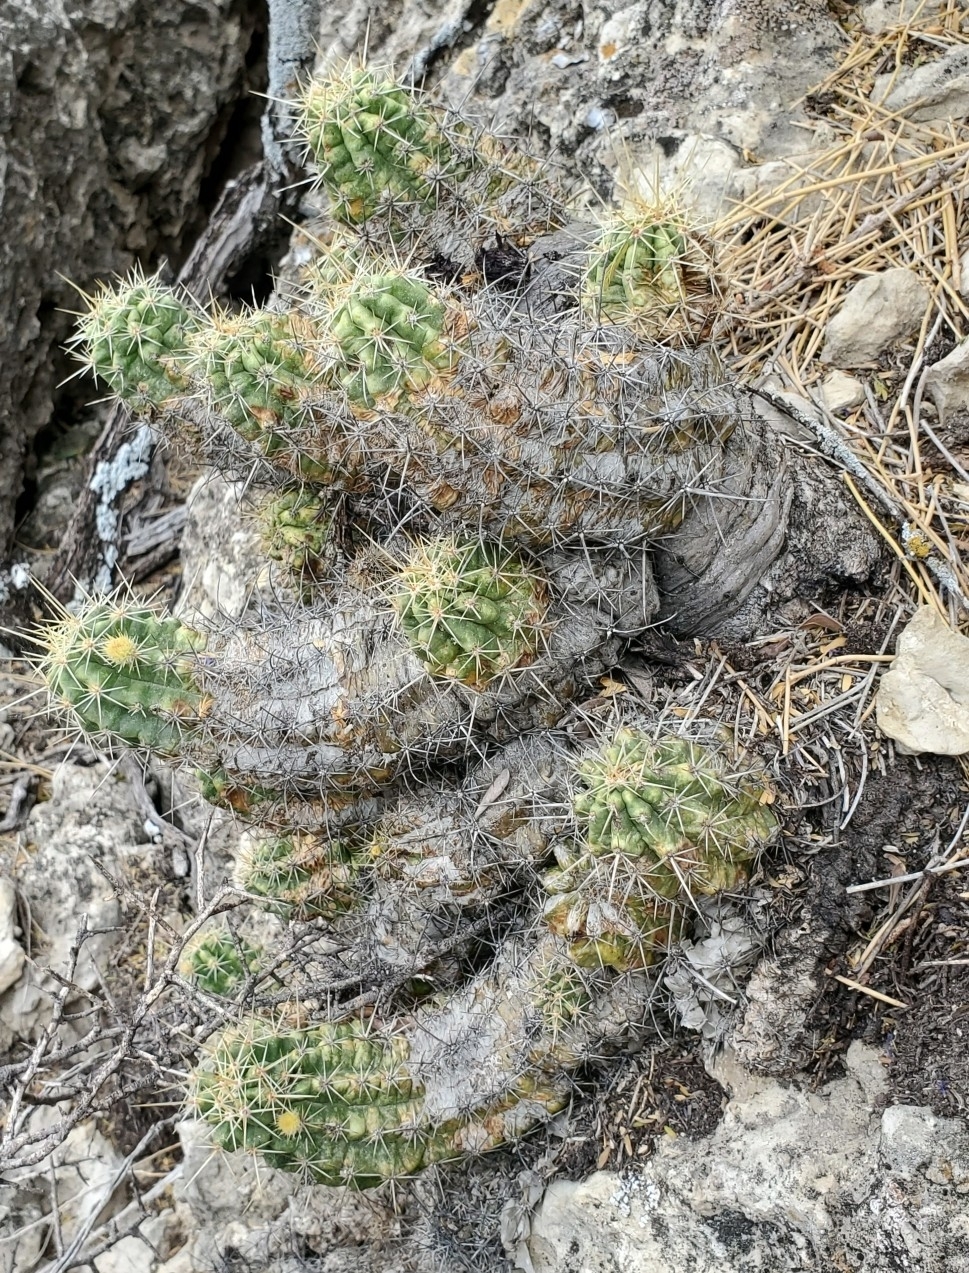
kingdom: Plantae
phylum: Tracheophyta
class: Magnoliopsida
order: Caryophyllales
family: Cactaceae
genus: Echinocereus
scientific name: Echinocereus enneacanthus
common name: Pitaya
